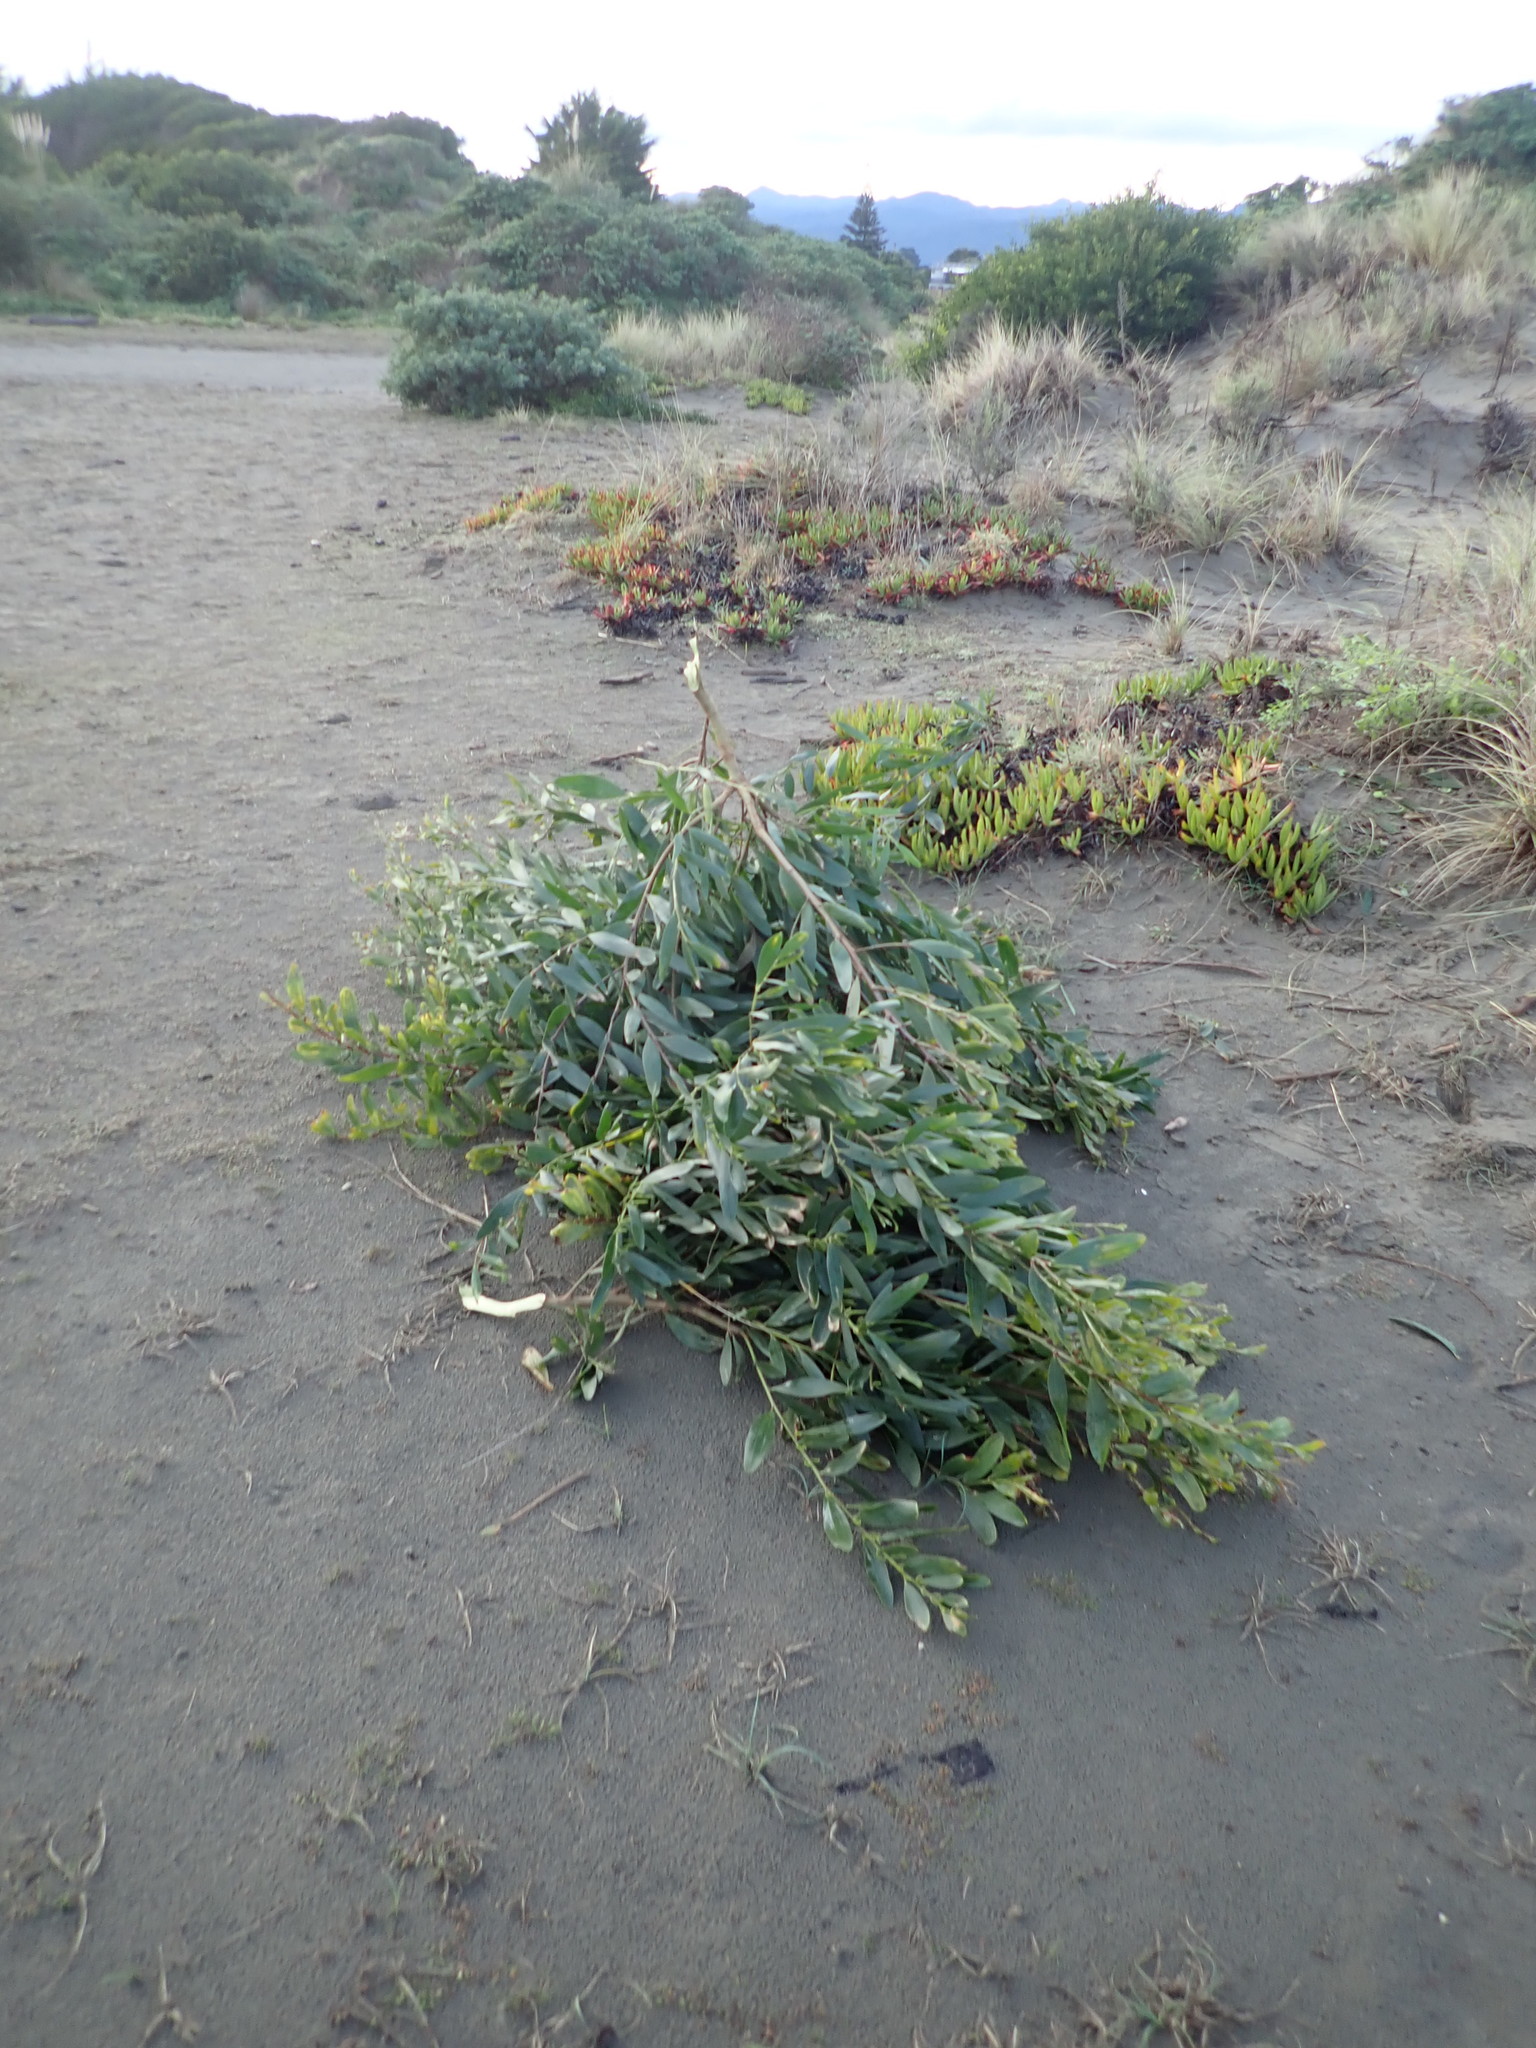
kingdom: Plantae
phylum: Tracheophyta
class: Magnoliopsida
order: Fabales
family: Fabaceae
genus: Acacia
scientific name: Acacia longifolia
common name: Sydney golden wattle
